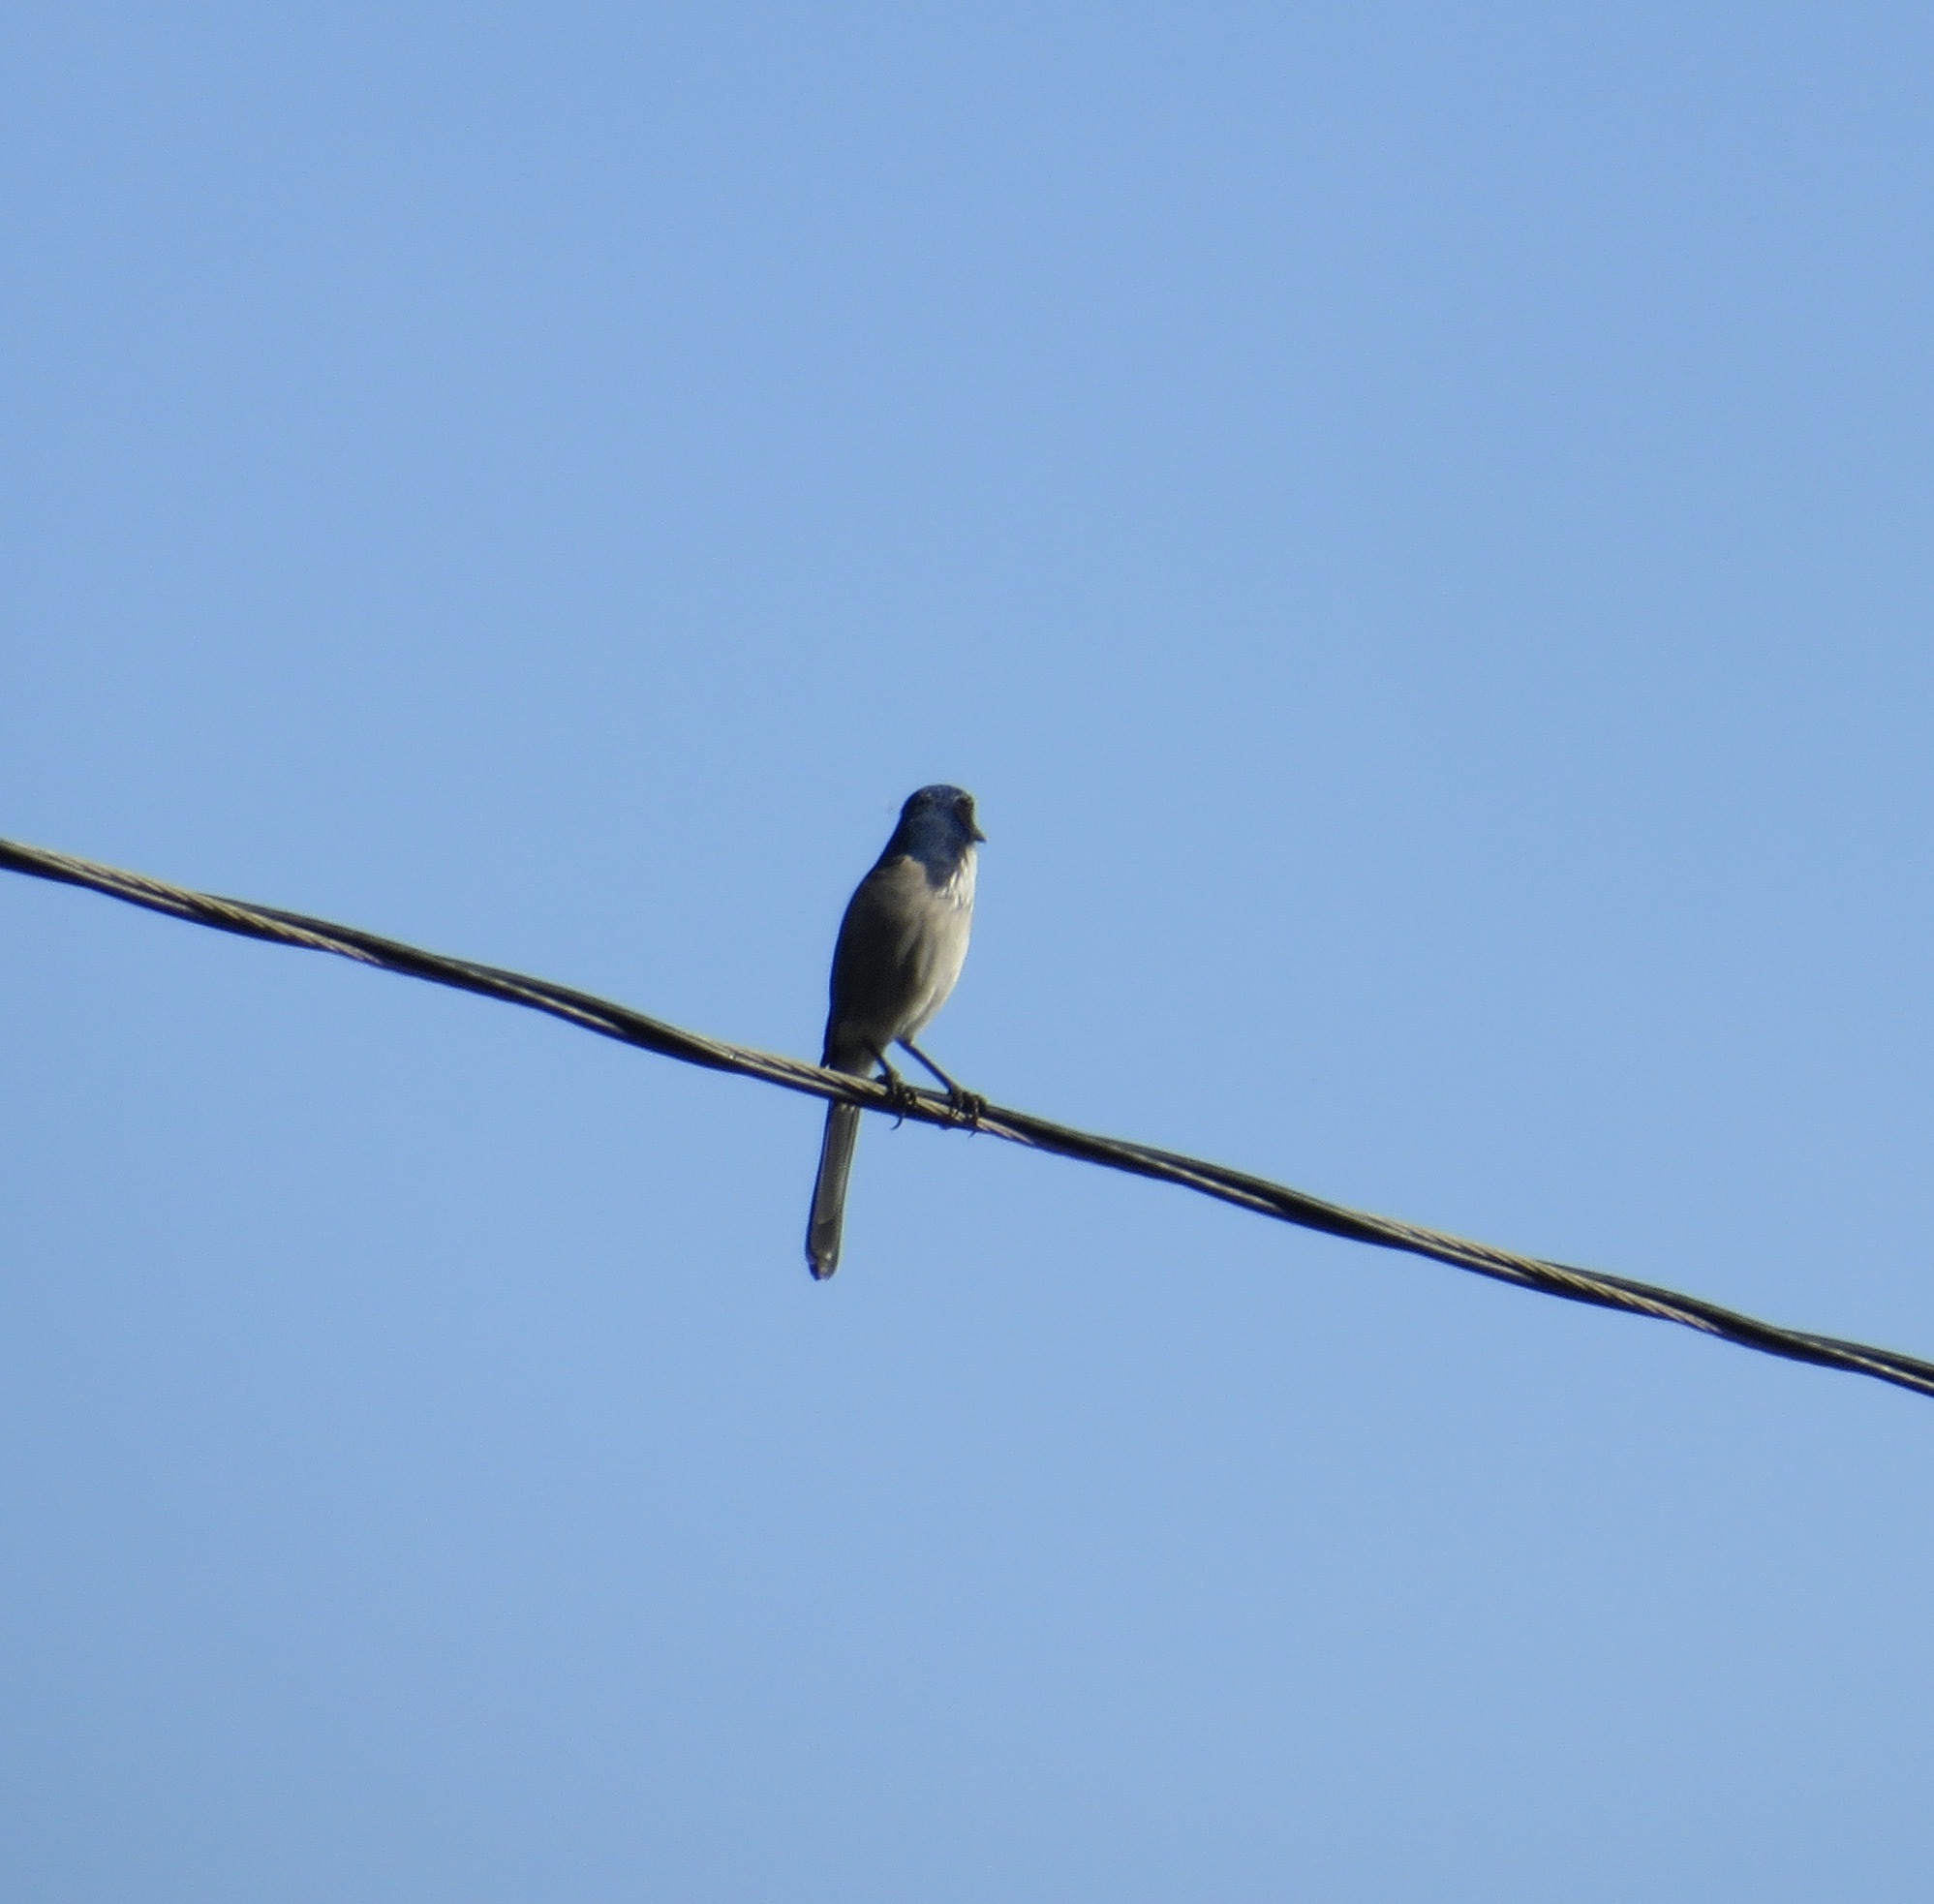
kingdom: Animalia
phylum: Chordata
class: Aves
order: Passeriformes
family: Corvidae
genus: Aphelocoma
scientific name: Aphelocoma californica
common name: California scrub-jay
